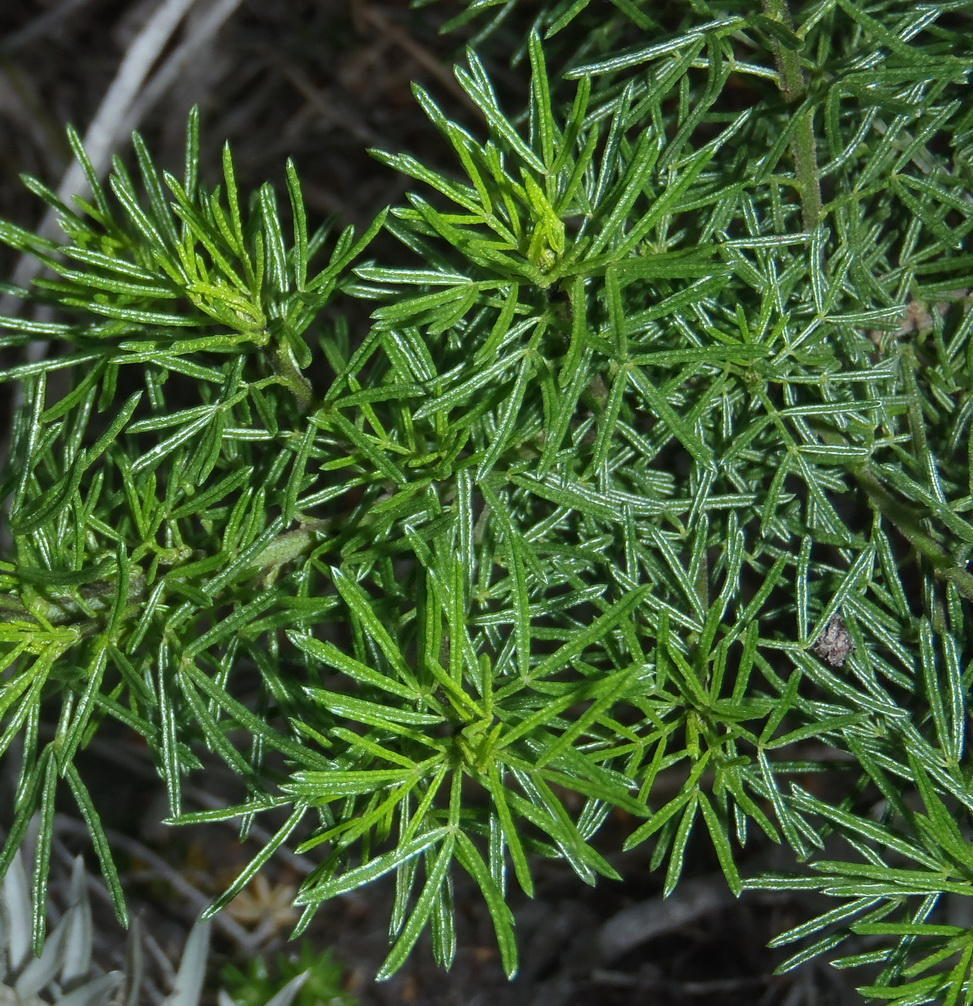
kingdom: Plantae
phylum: Tracheophyta
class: Magnoliopsida
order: Fabales
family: Fabaceae
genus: Psoralea
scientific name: Psoralea vanberkelae
